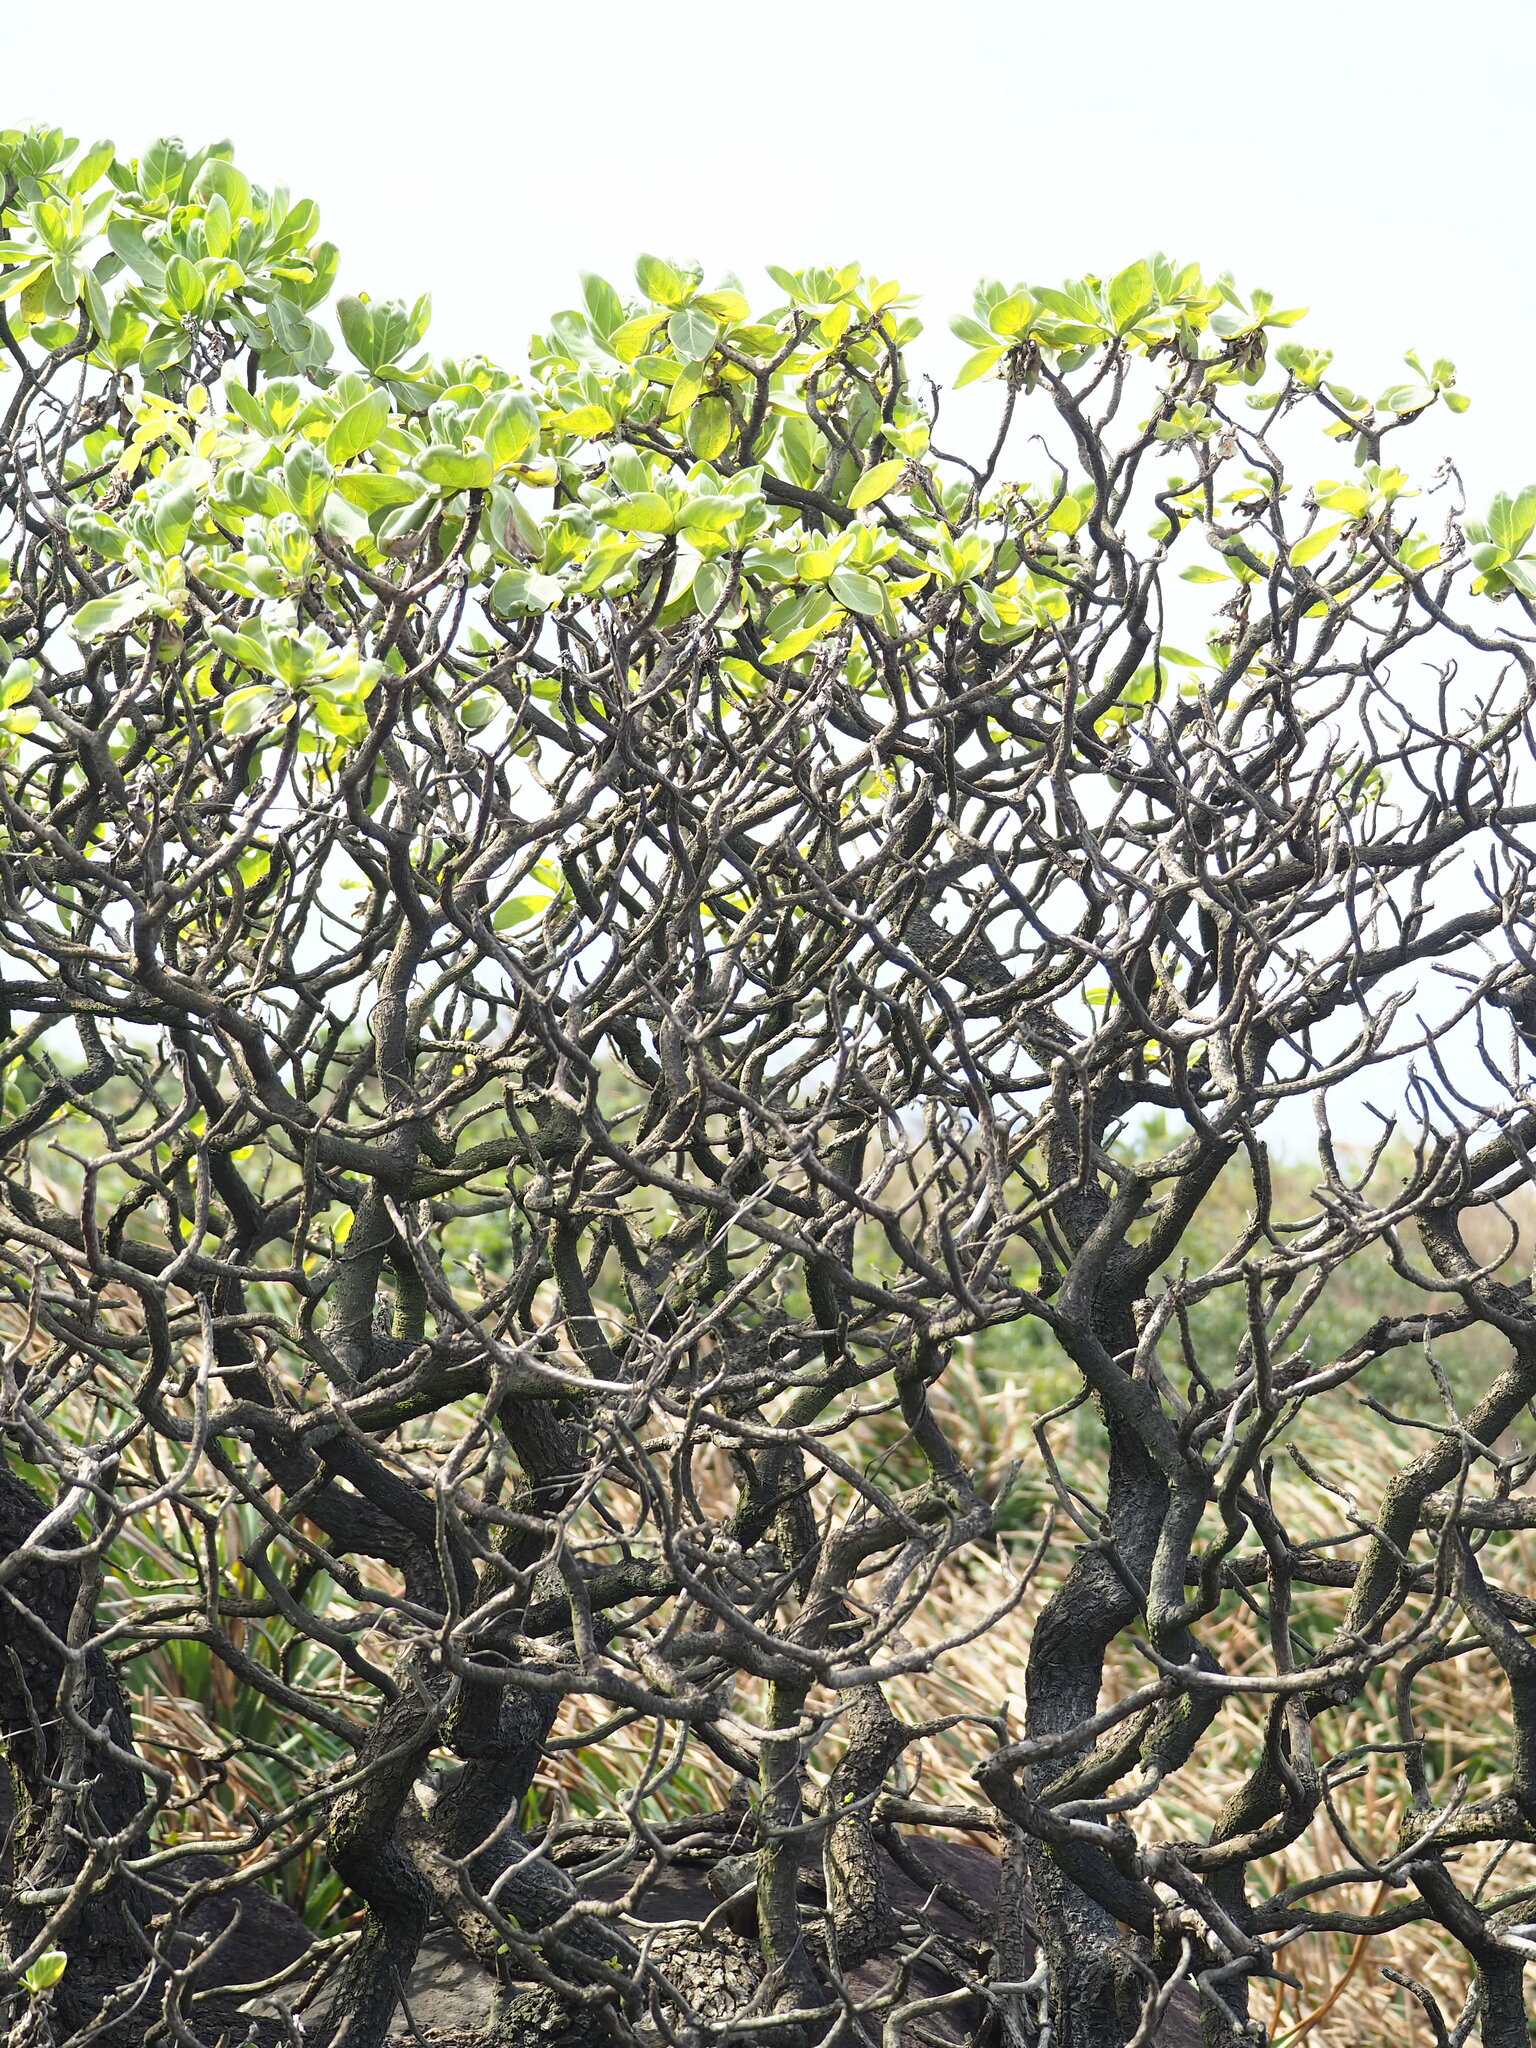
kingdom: Plantae
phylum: Tracheophyta
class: Magnoliopsida
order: Boraginales
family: Heliotropiaceae
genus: Heliotropium
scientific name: Heliotropium velutinum
